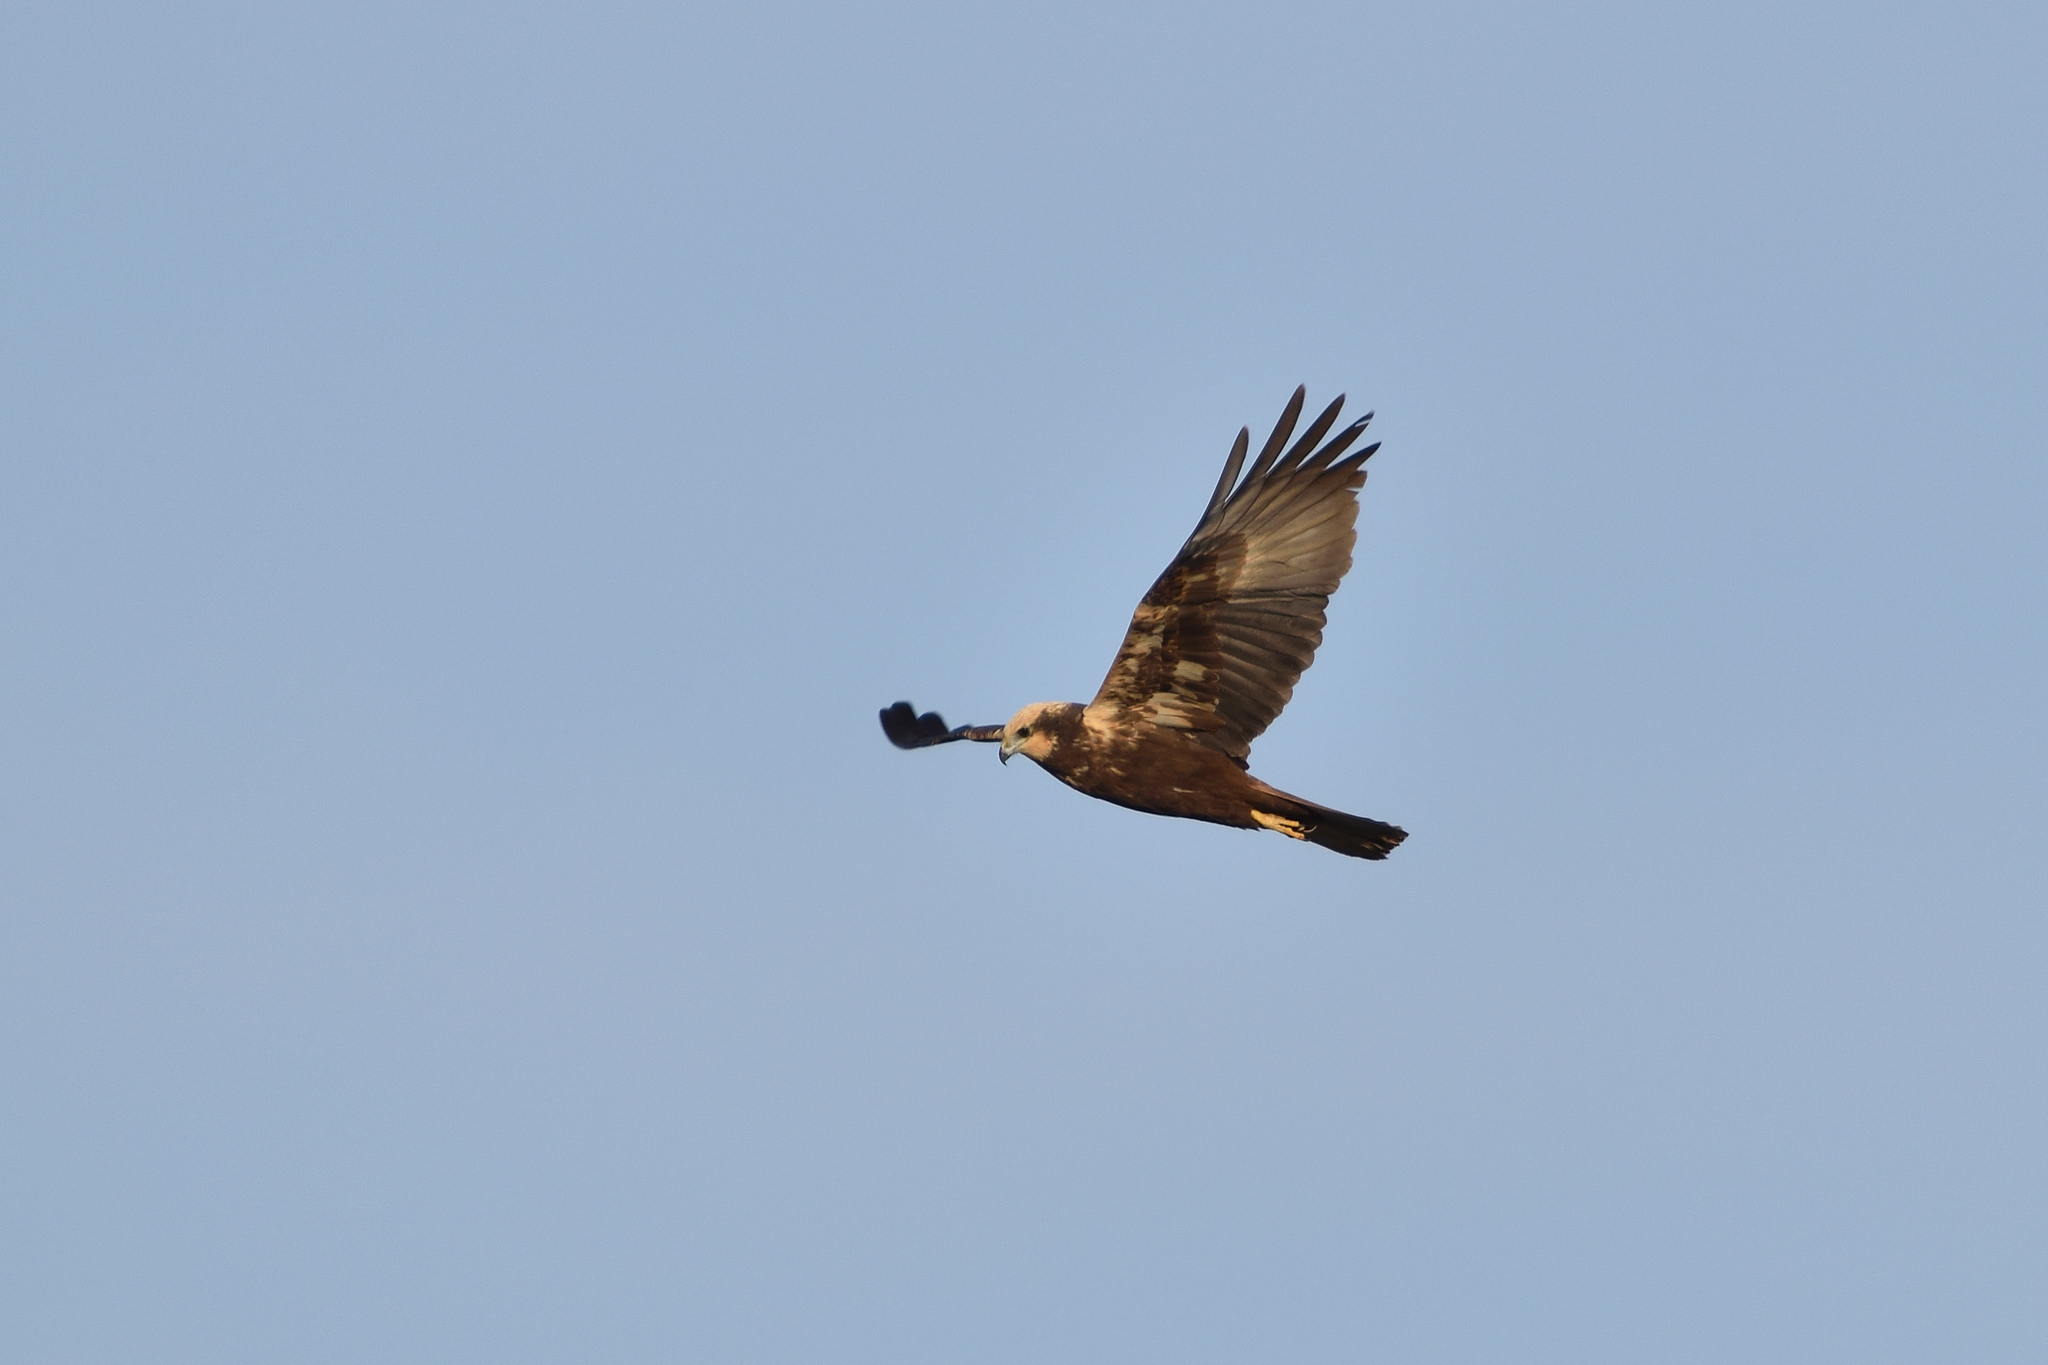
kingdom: Animalia
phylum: Chordata
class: Aves
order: Accipitriformes
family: Accipitridae
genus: Circus
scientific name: Circus aeruginosus
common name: Western marsh harrier
